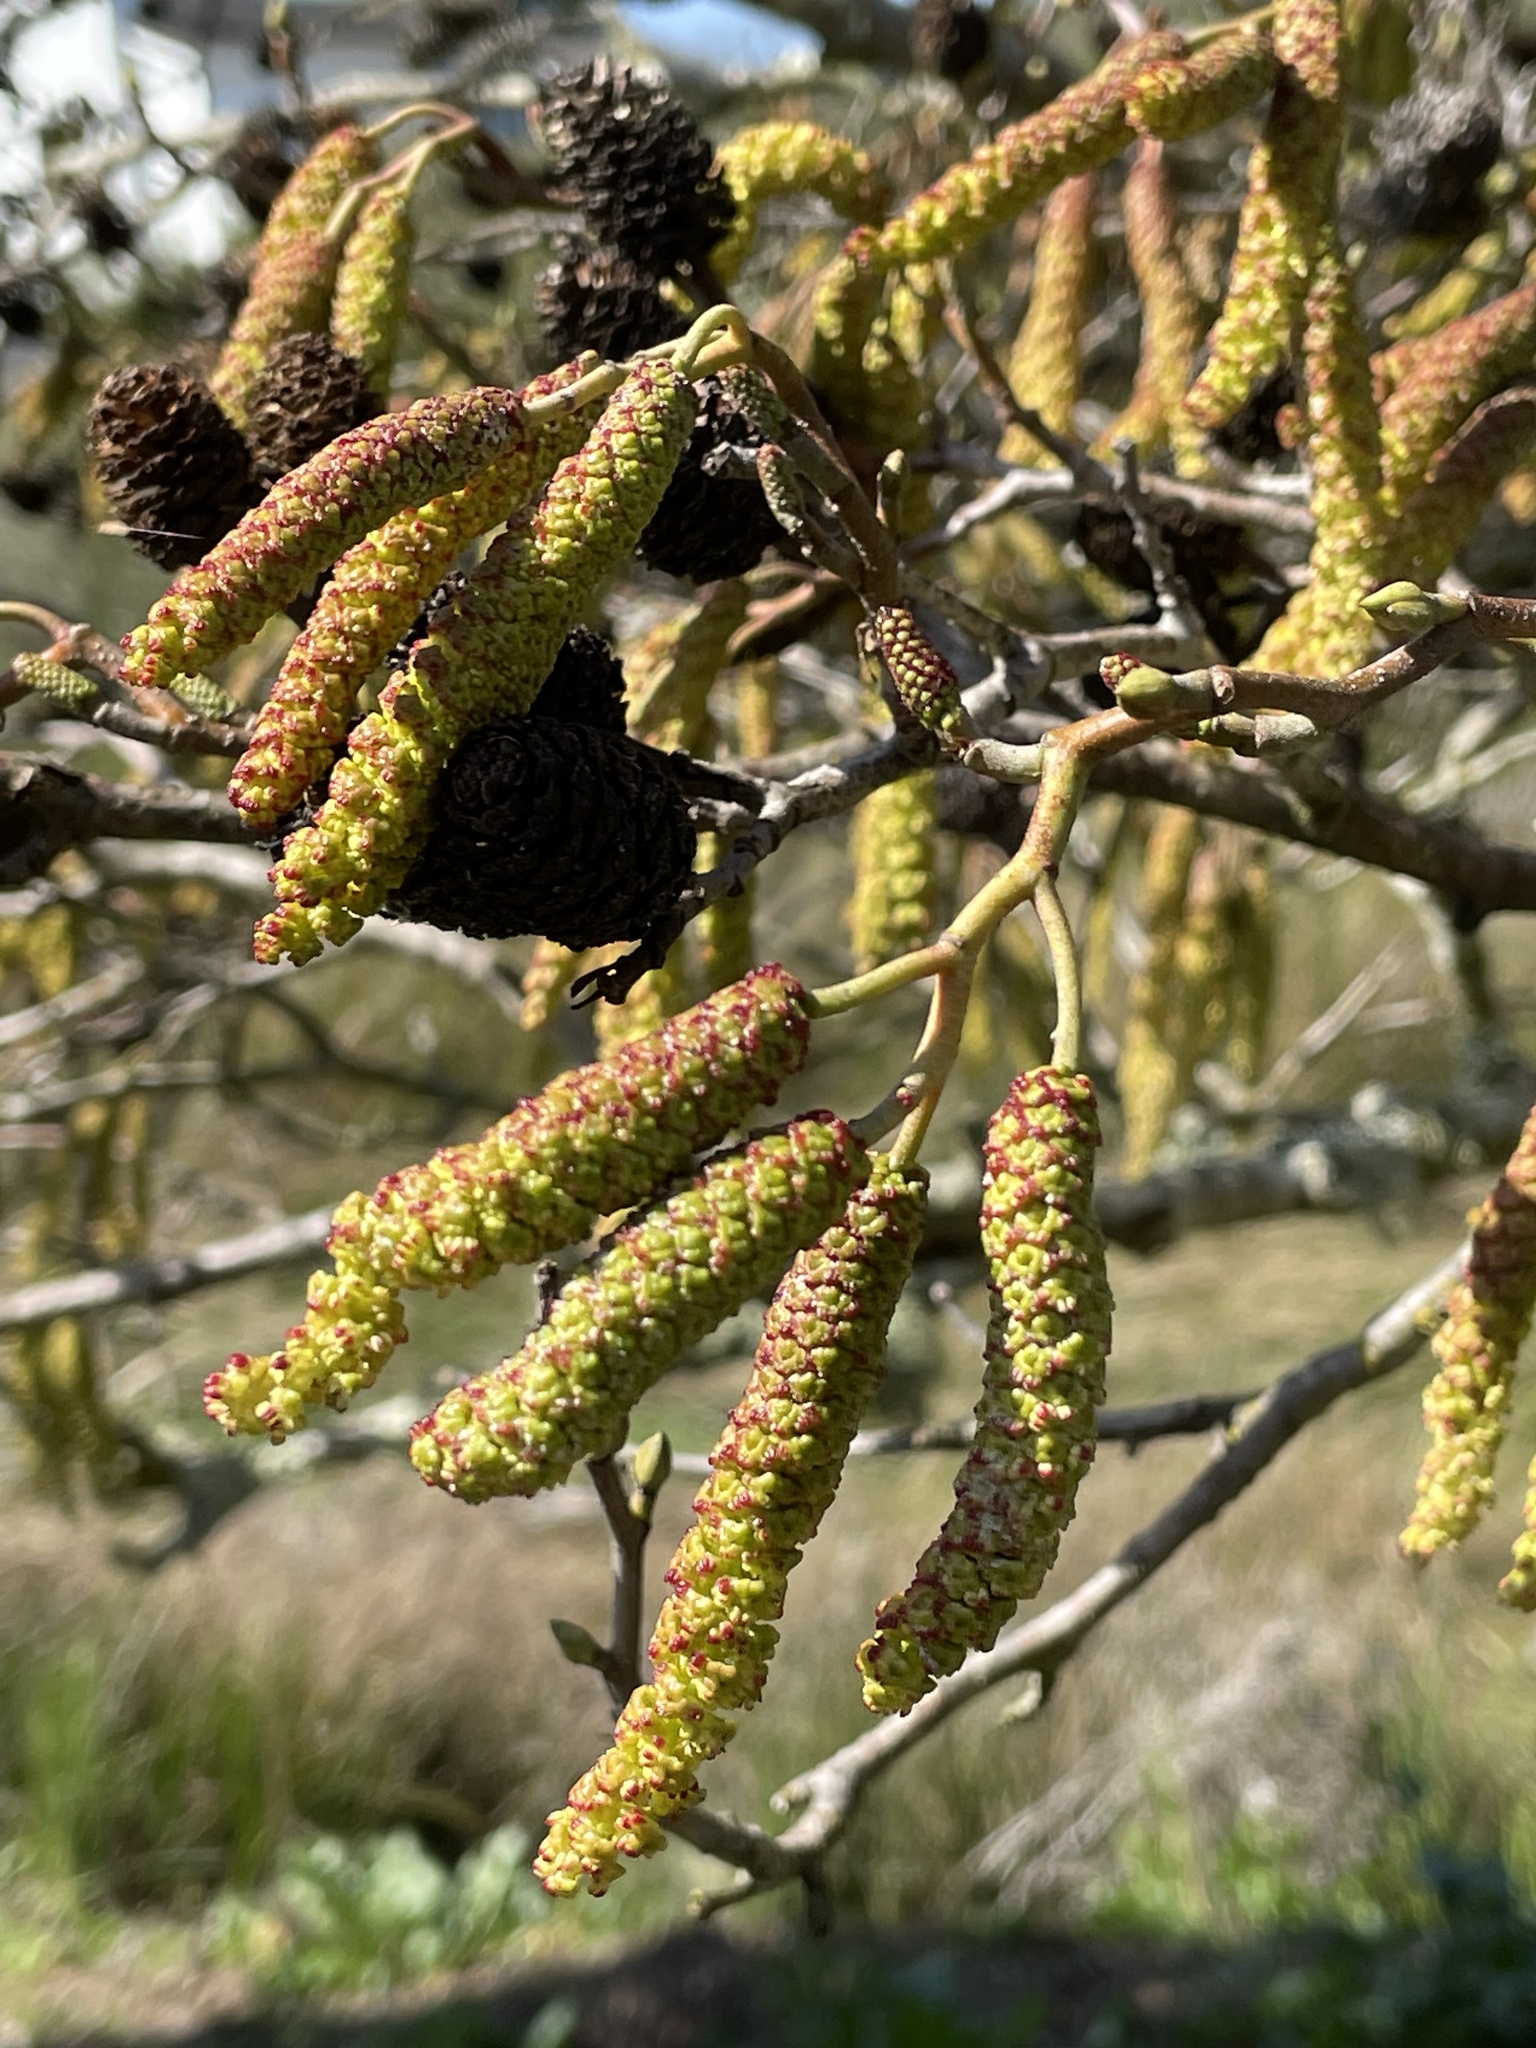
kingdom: Plantae
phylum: Tracheophyta
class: Magnoliopsida
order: Fagales
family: Betulaceae
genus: Alnus
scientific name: Alnus rhombifolia
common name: California alder
